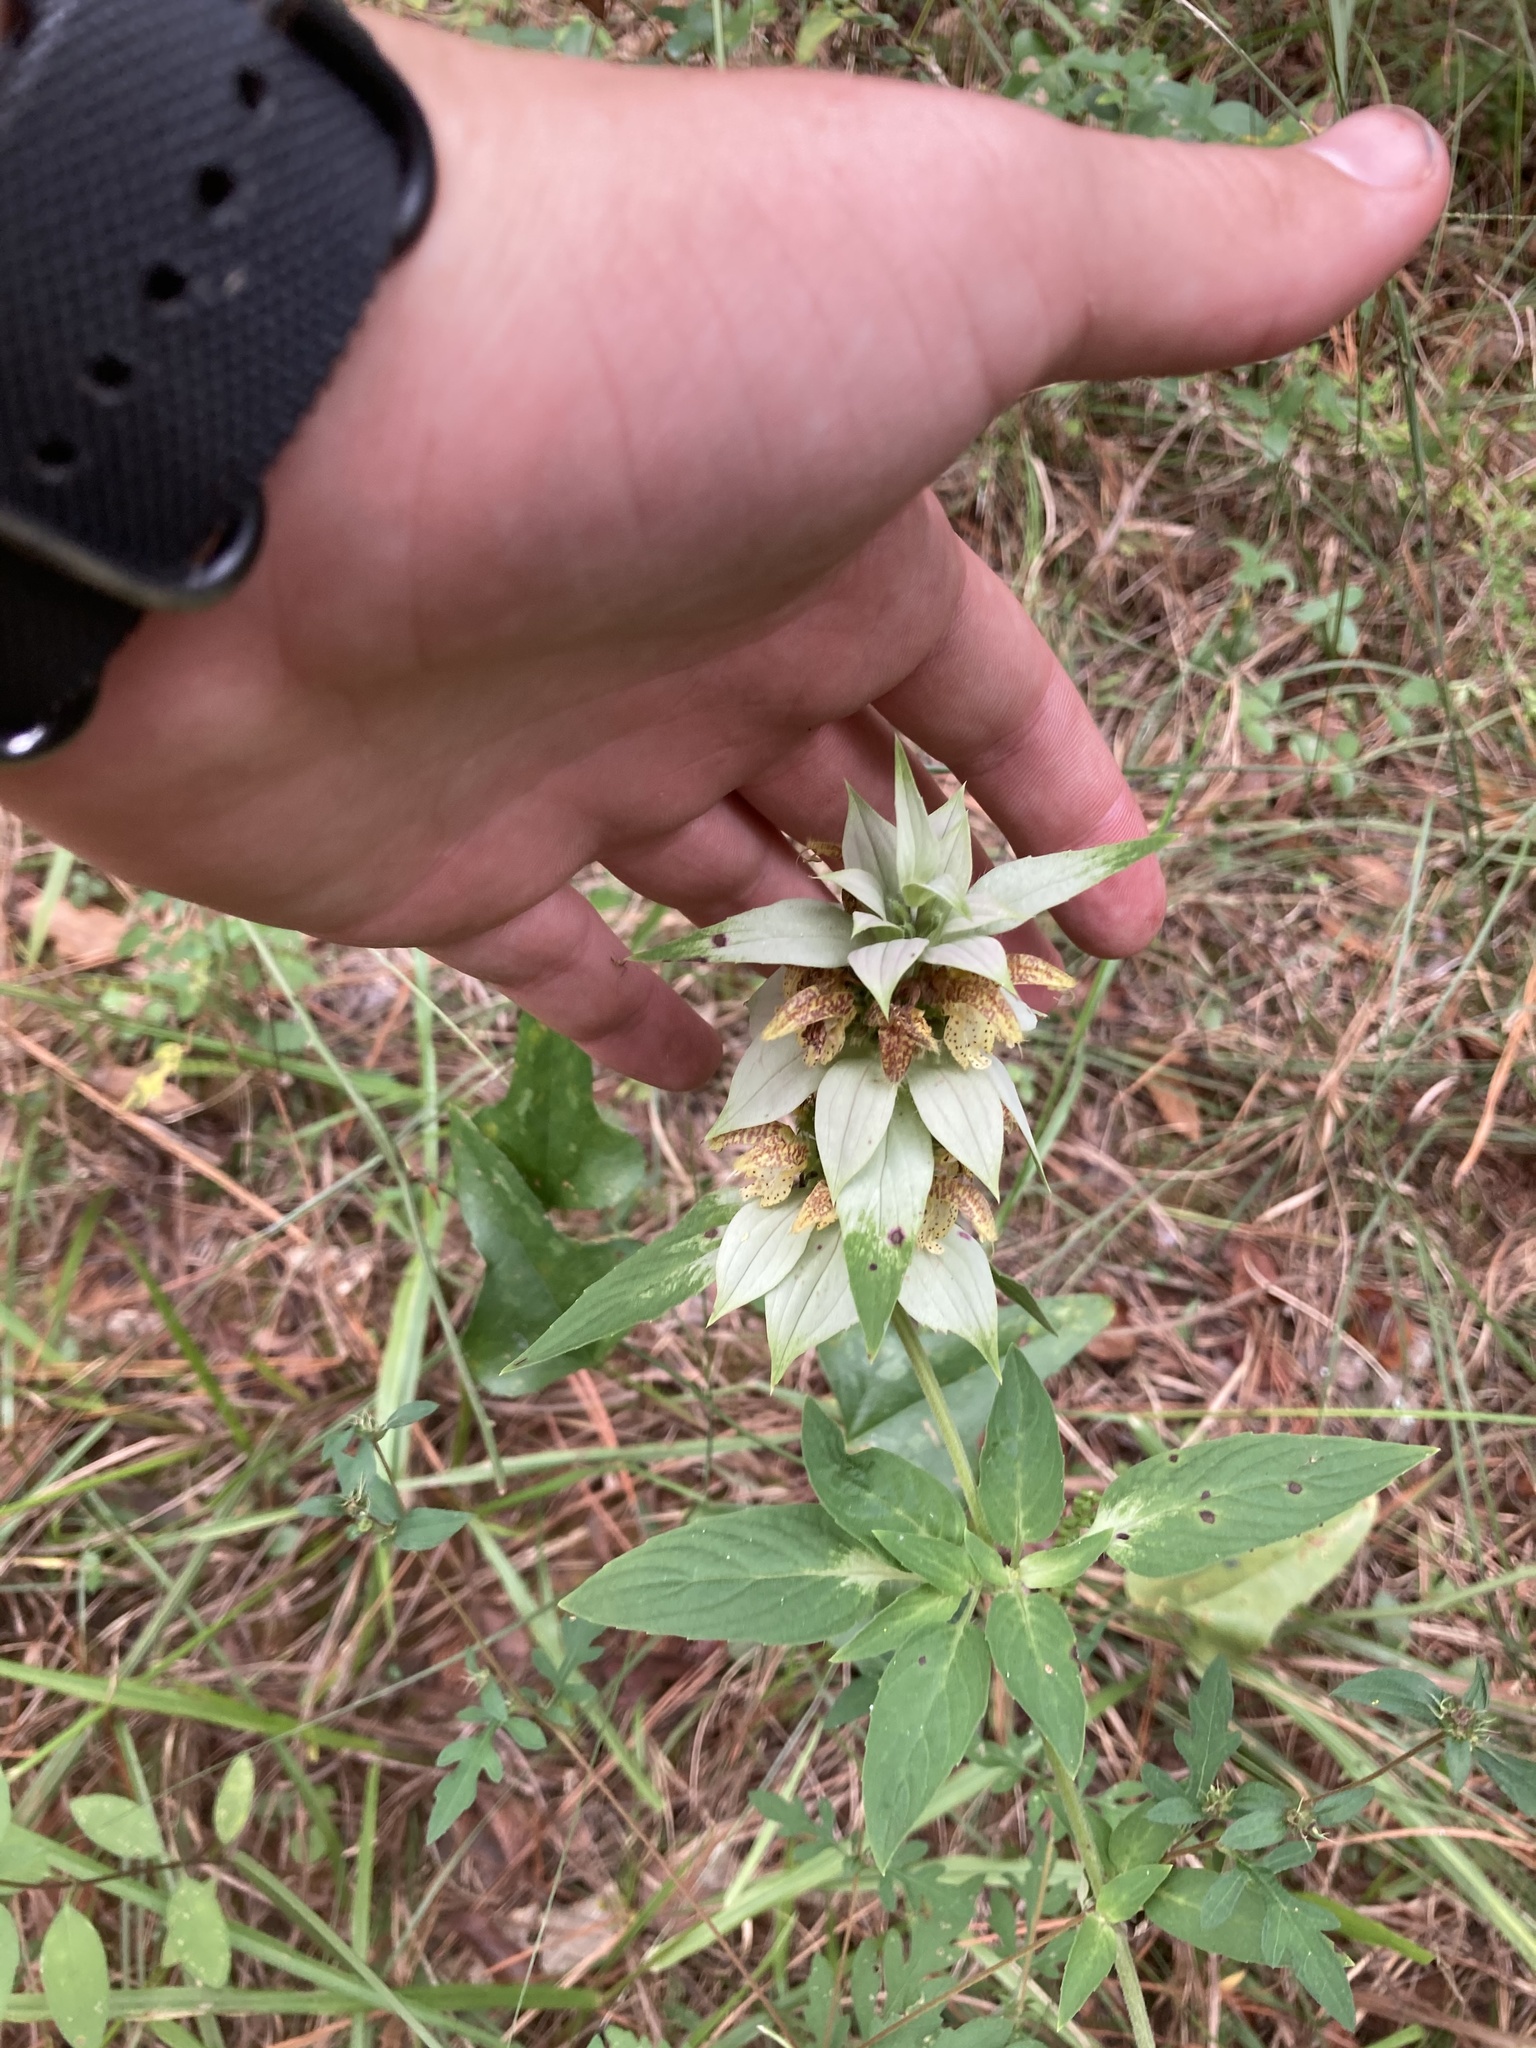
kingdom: Plantae
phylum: Tracheophyta
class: Magnoliopsida
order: Lamiales
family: Lamiaceae
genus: Monarda
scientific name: Monarda punctata
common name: Dotted monarda
